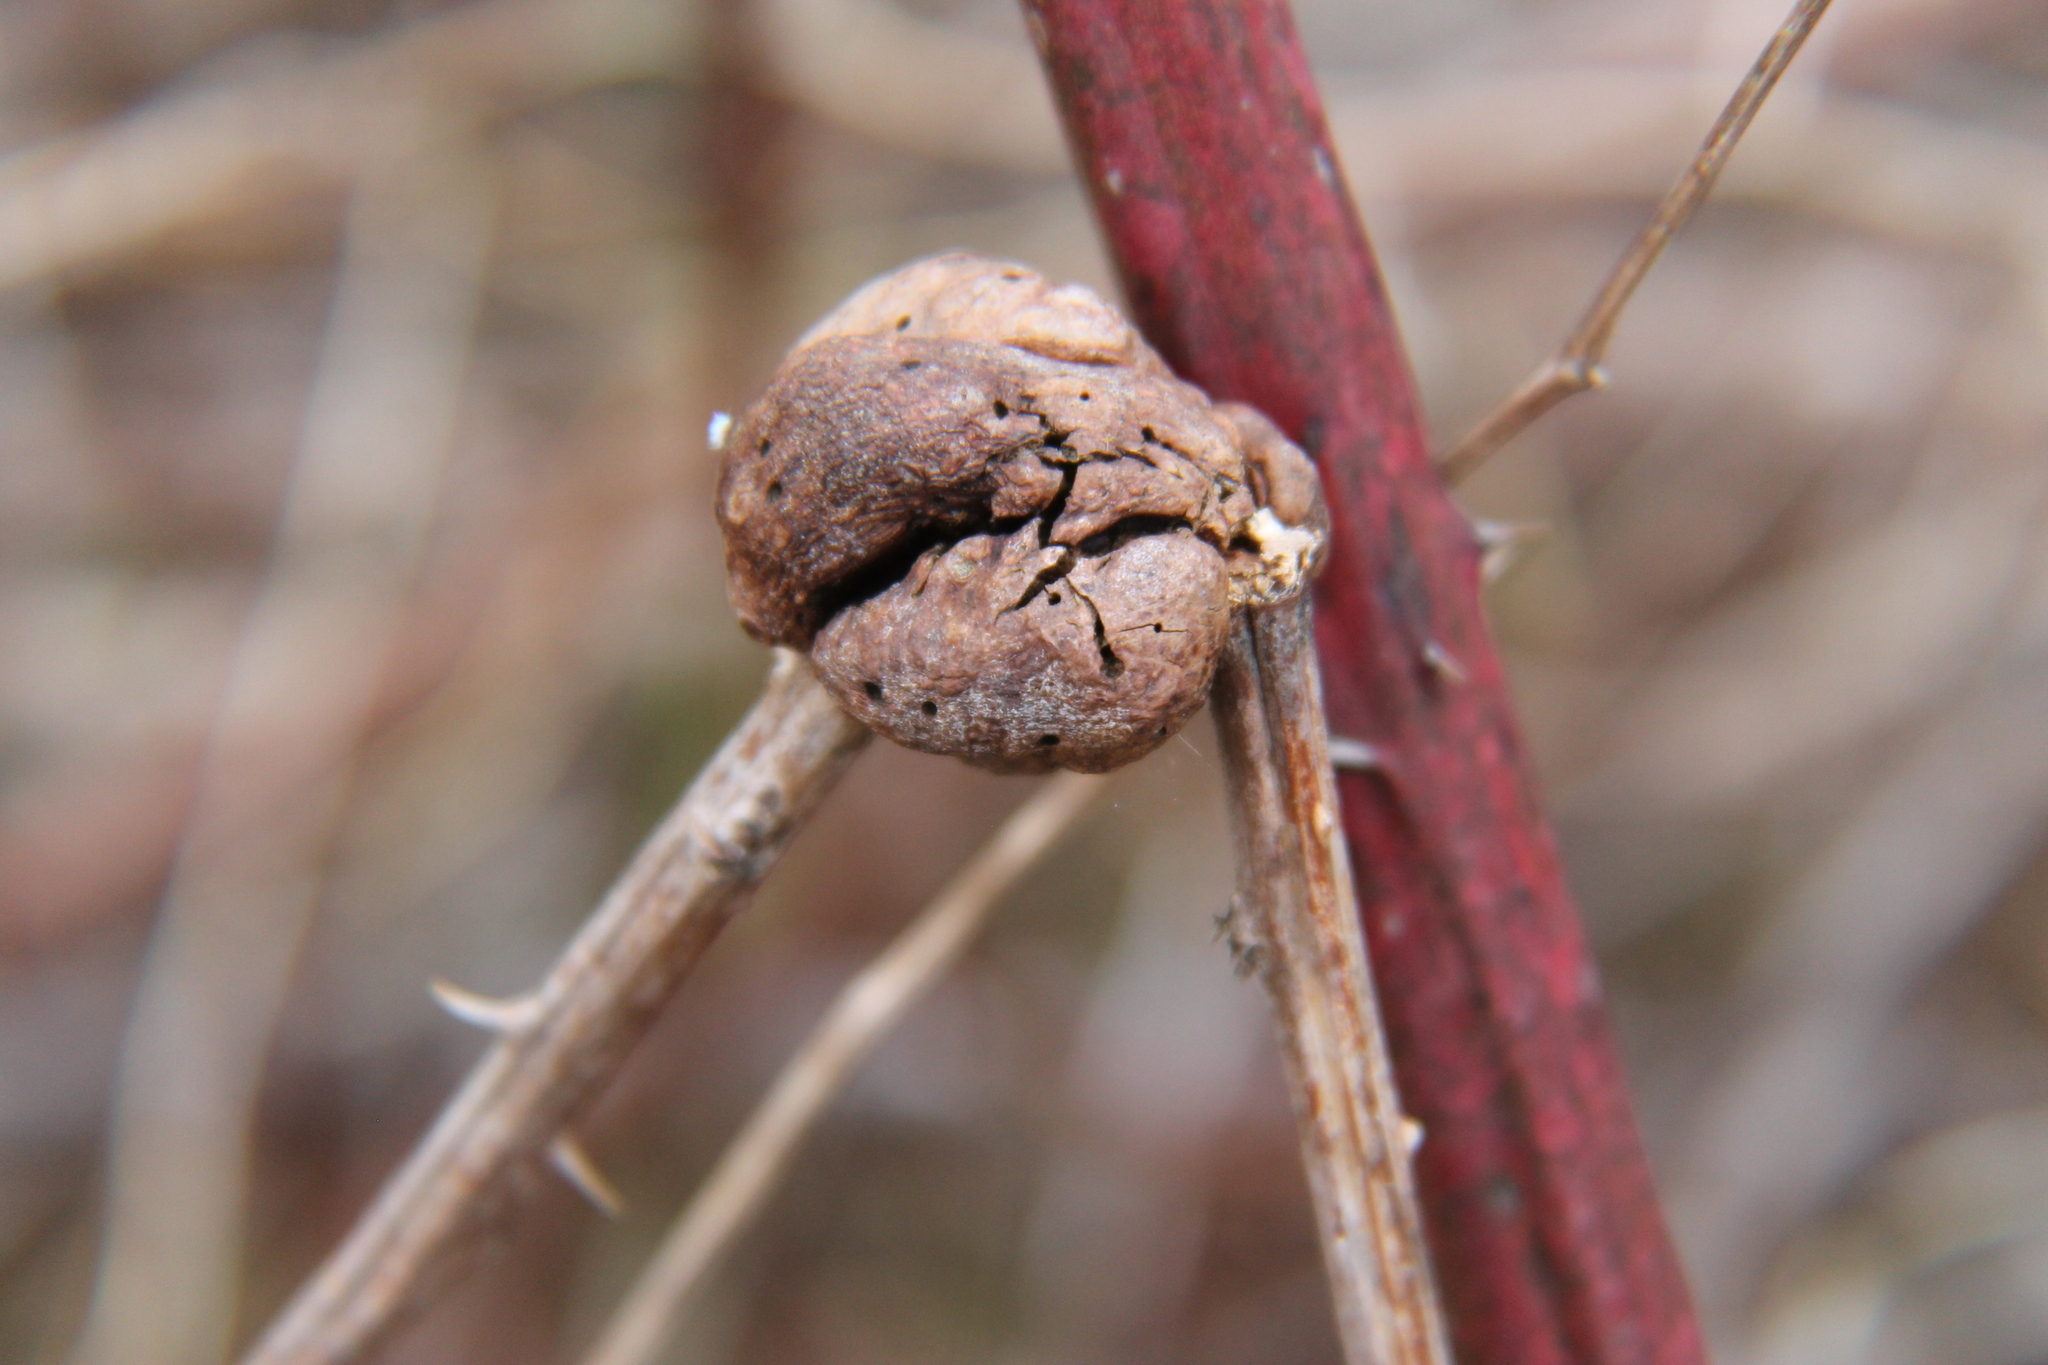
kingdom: Animalia
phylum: Arthropoda
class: Insecta
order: Hymenoptera
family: Cynipidae
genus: Diastrophus
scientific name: Diastrophus
